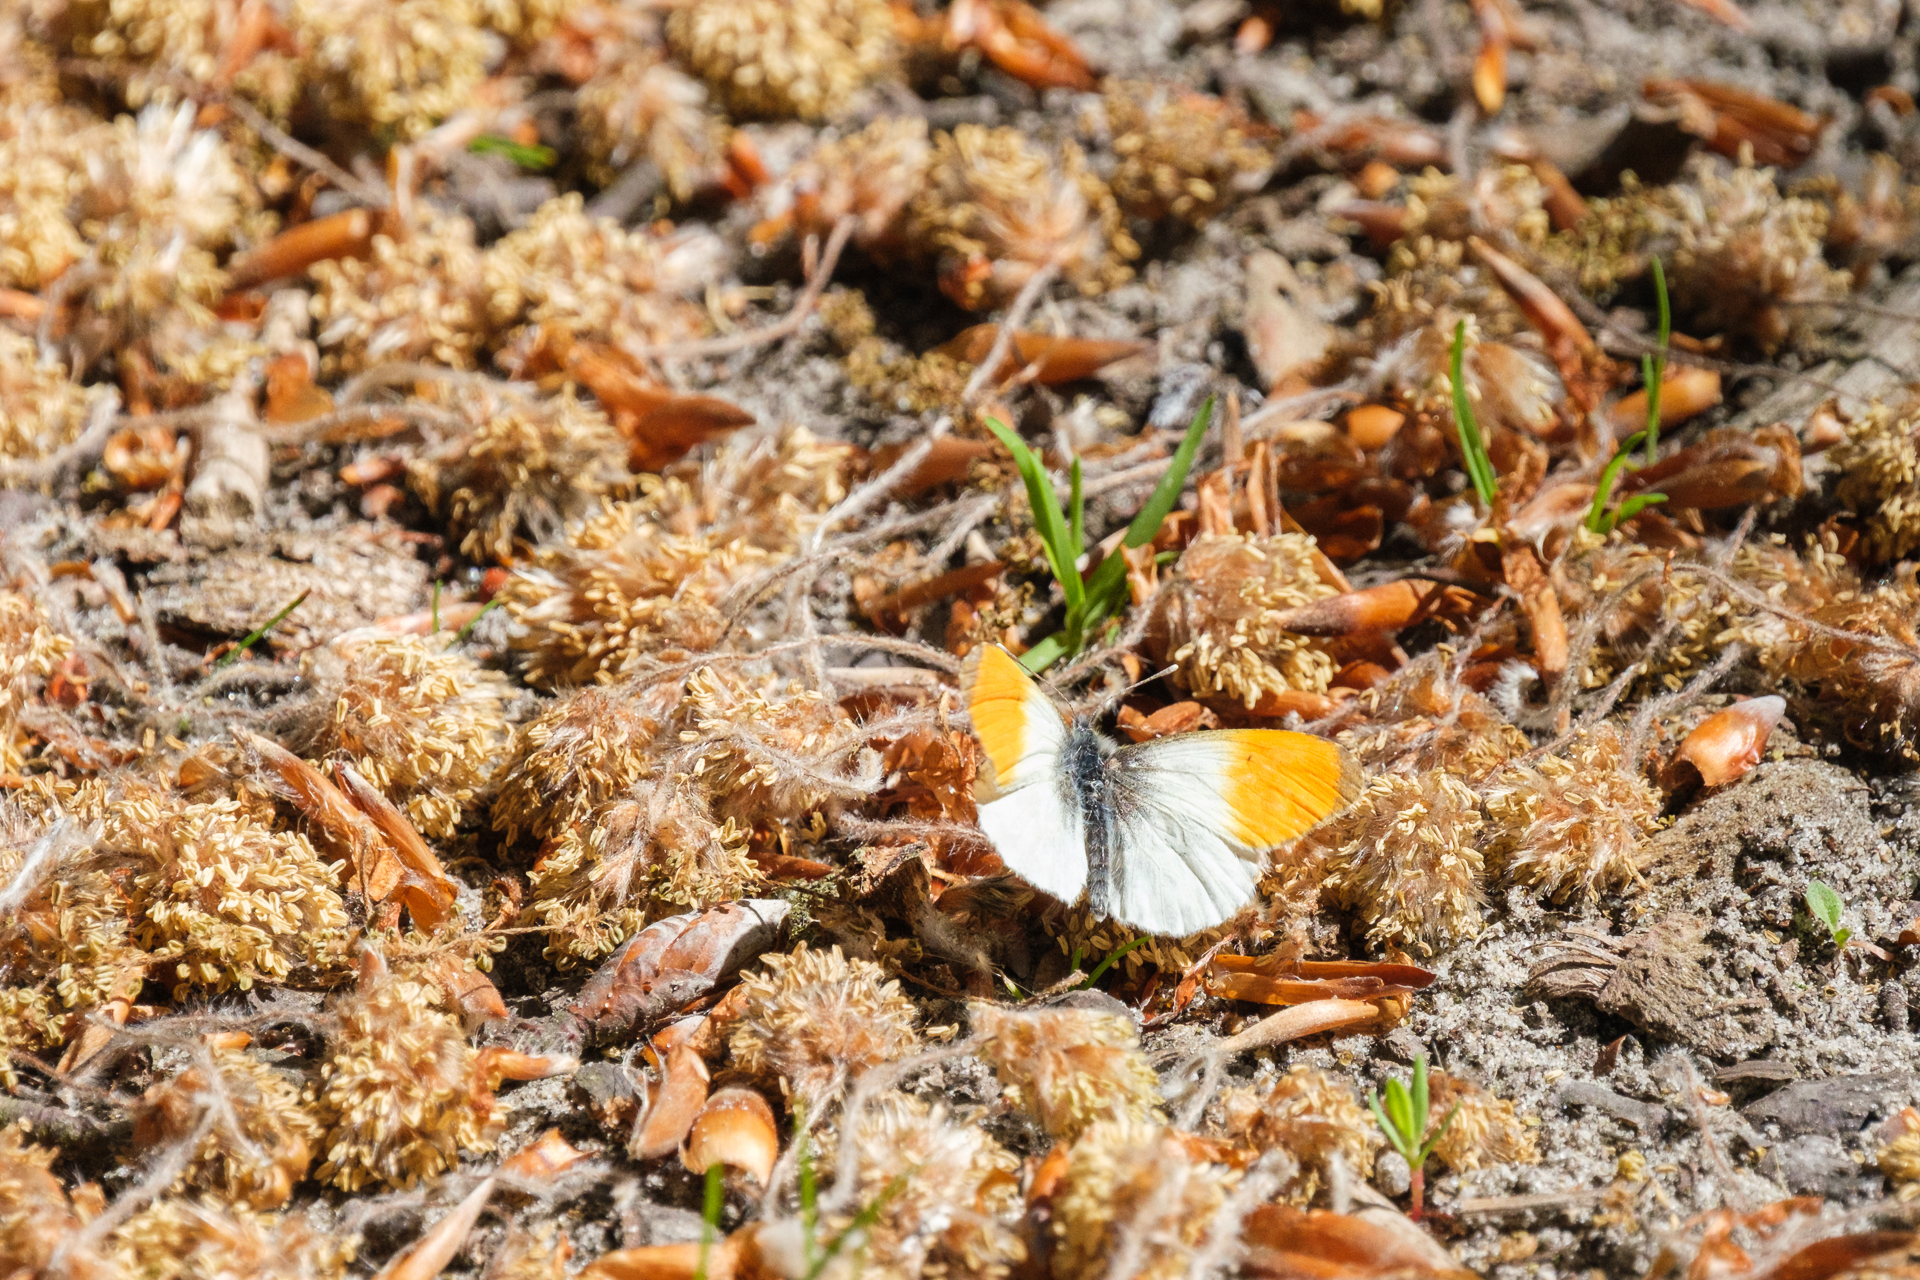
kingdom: Animalia
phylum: Arthropoda
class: Insecta
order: Lepidoptera
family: Pieridae
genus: Anthocharis
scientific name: Anthocharis cardamines
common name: Orange-tip
